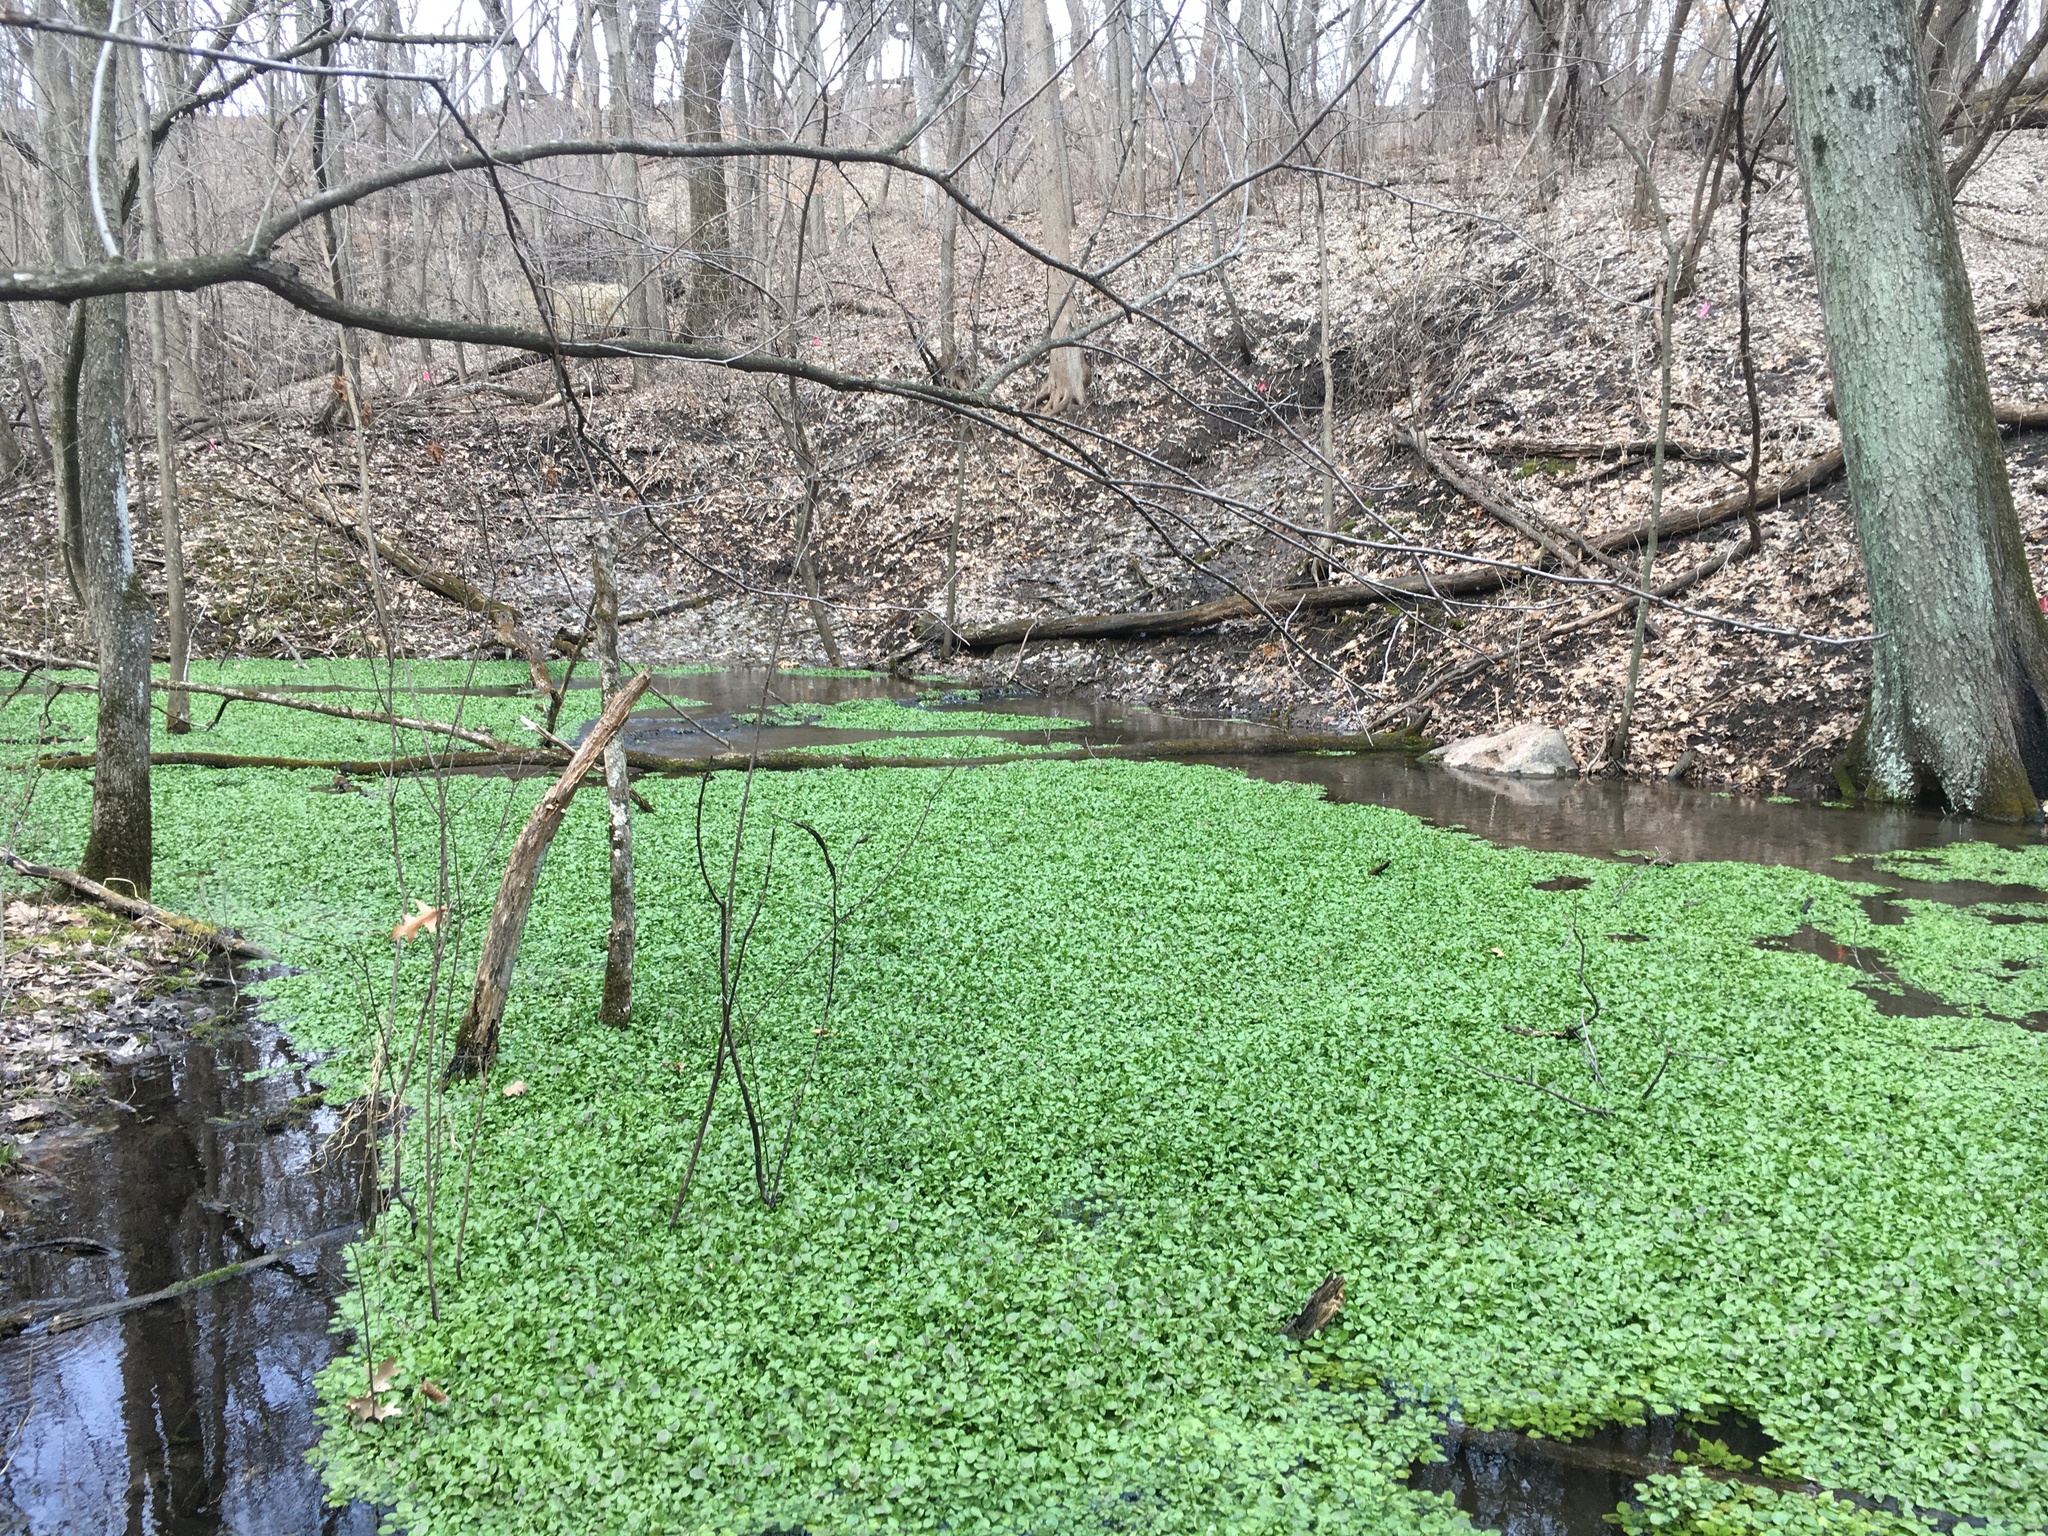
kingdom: Plantae
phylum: Tracheophyta
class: Magnoliopsida
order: Brassicales
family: Brassicaceae
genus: Nasturtium
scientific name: Nasturtium officinale
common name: Watercress
